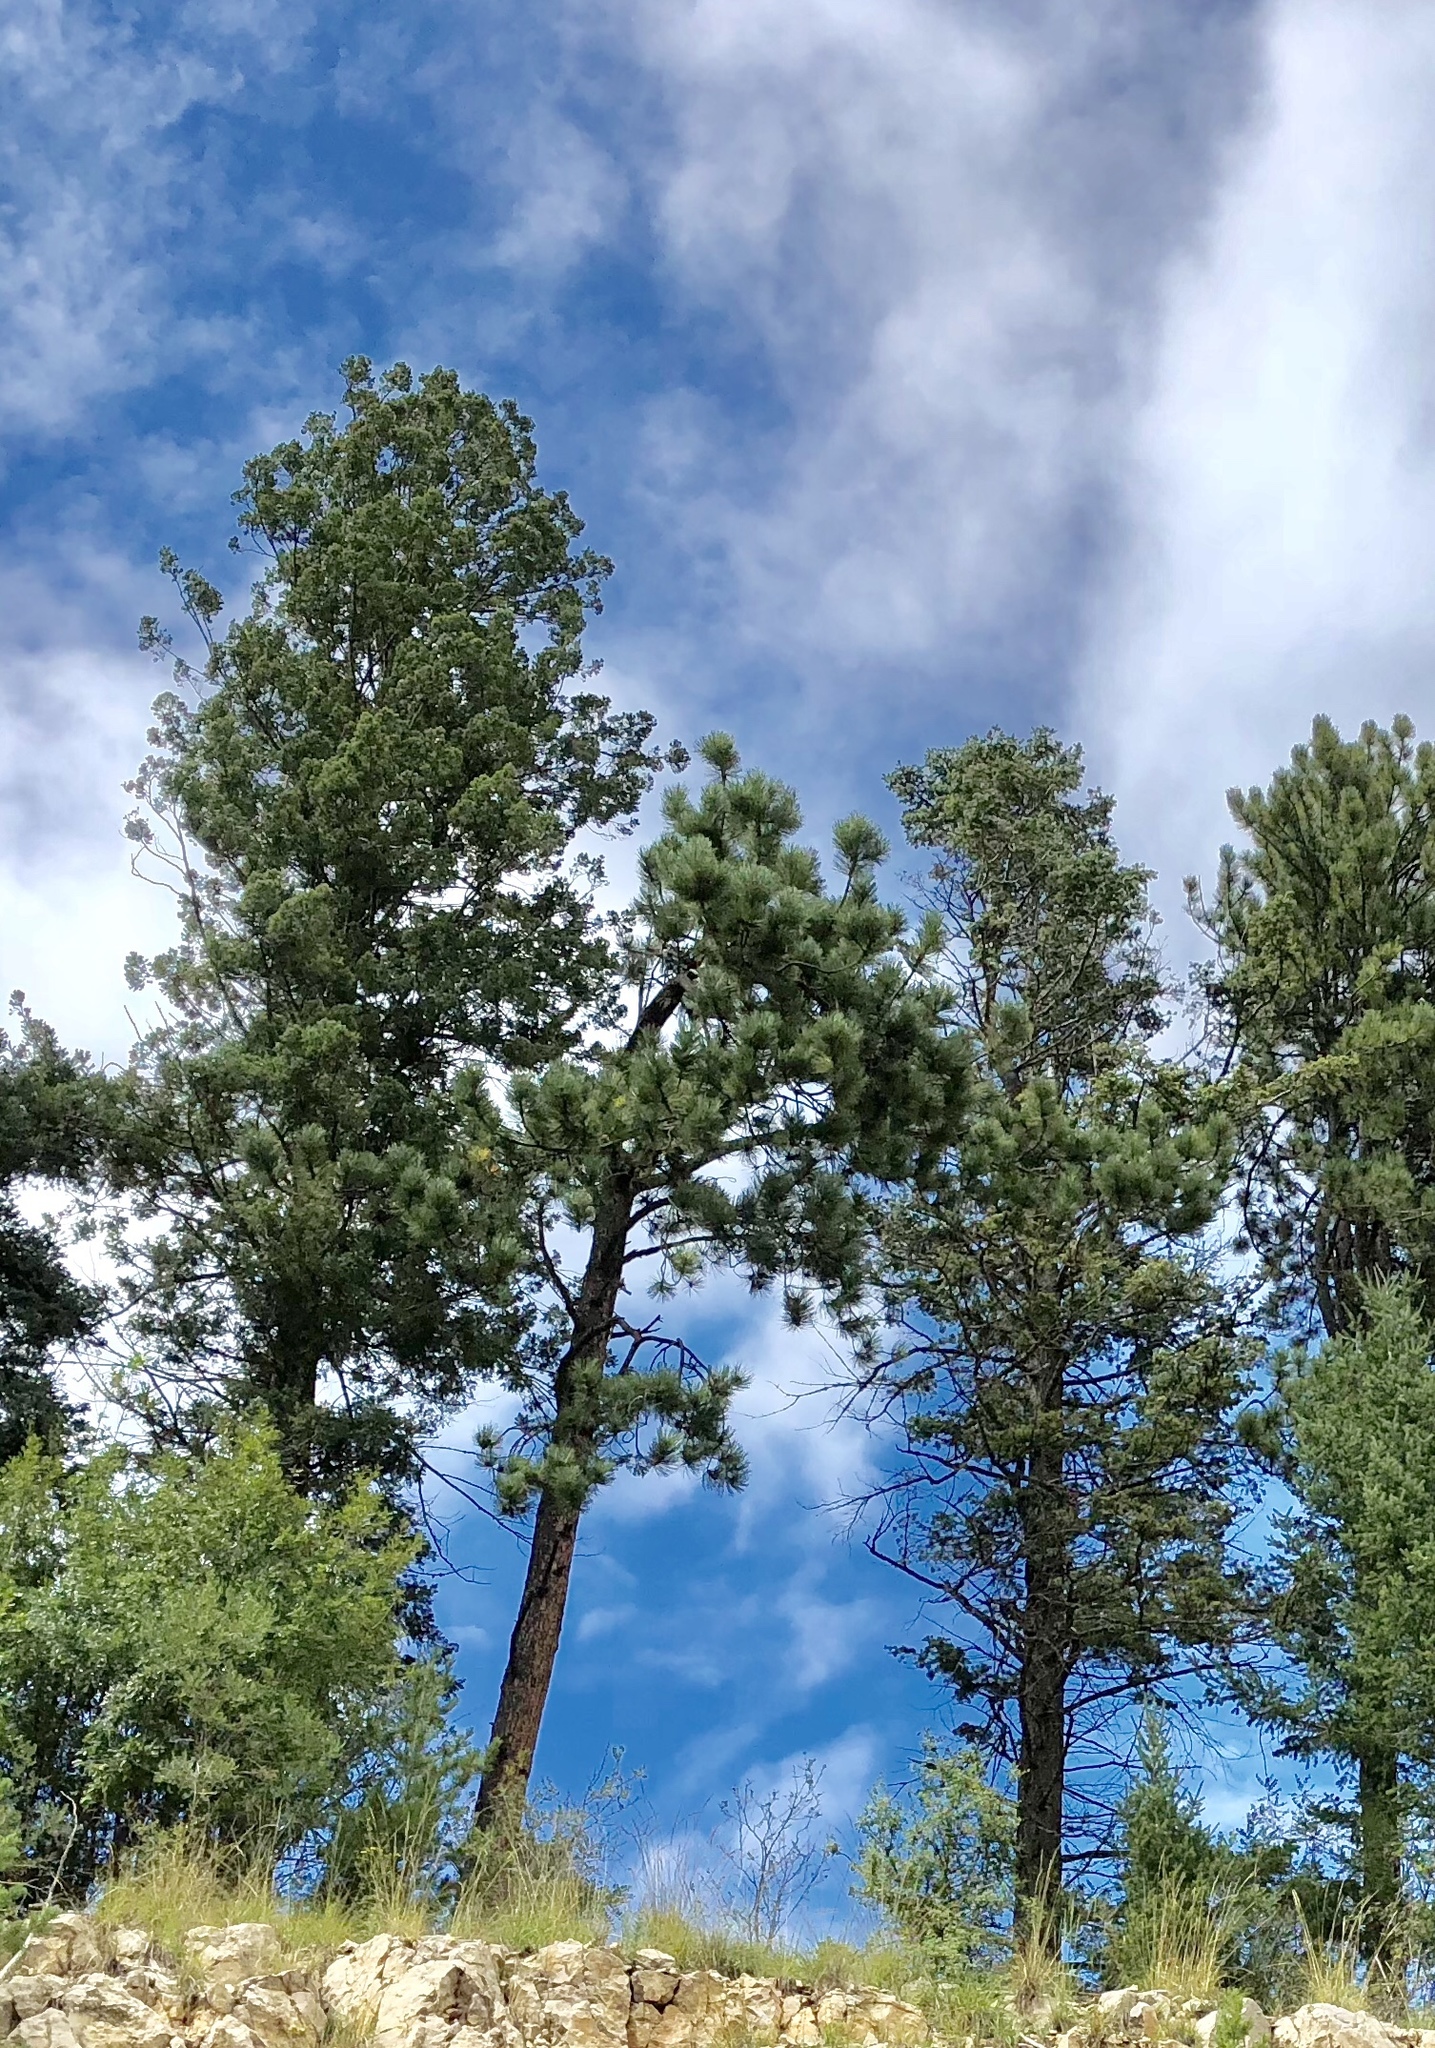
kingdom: Plantae
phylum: Tracheophyta
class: Pinopsida
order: Pinales
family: Pinaceae
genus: Pinus
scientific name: Pinus ponderosa
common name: Western yellow-pine
